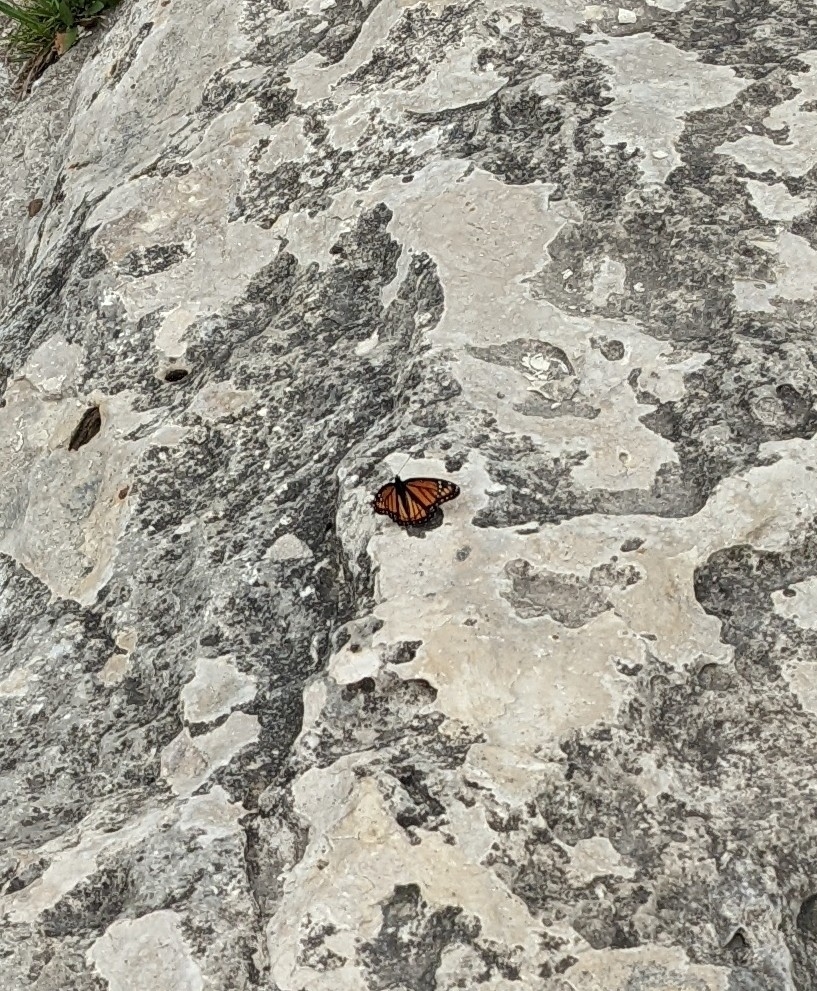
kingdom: Animalia
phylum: Arthropoda
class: Insecta
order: Lepidoptera
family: Nymphalidae
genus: Limenitis
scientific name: Limenitis archippus
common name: Viceroy
